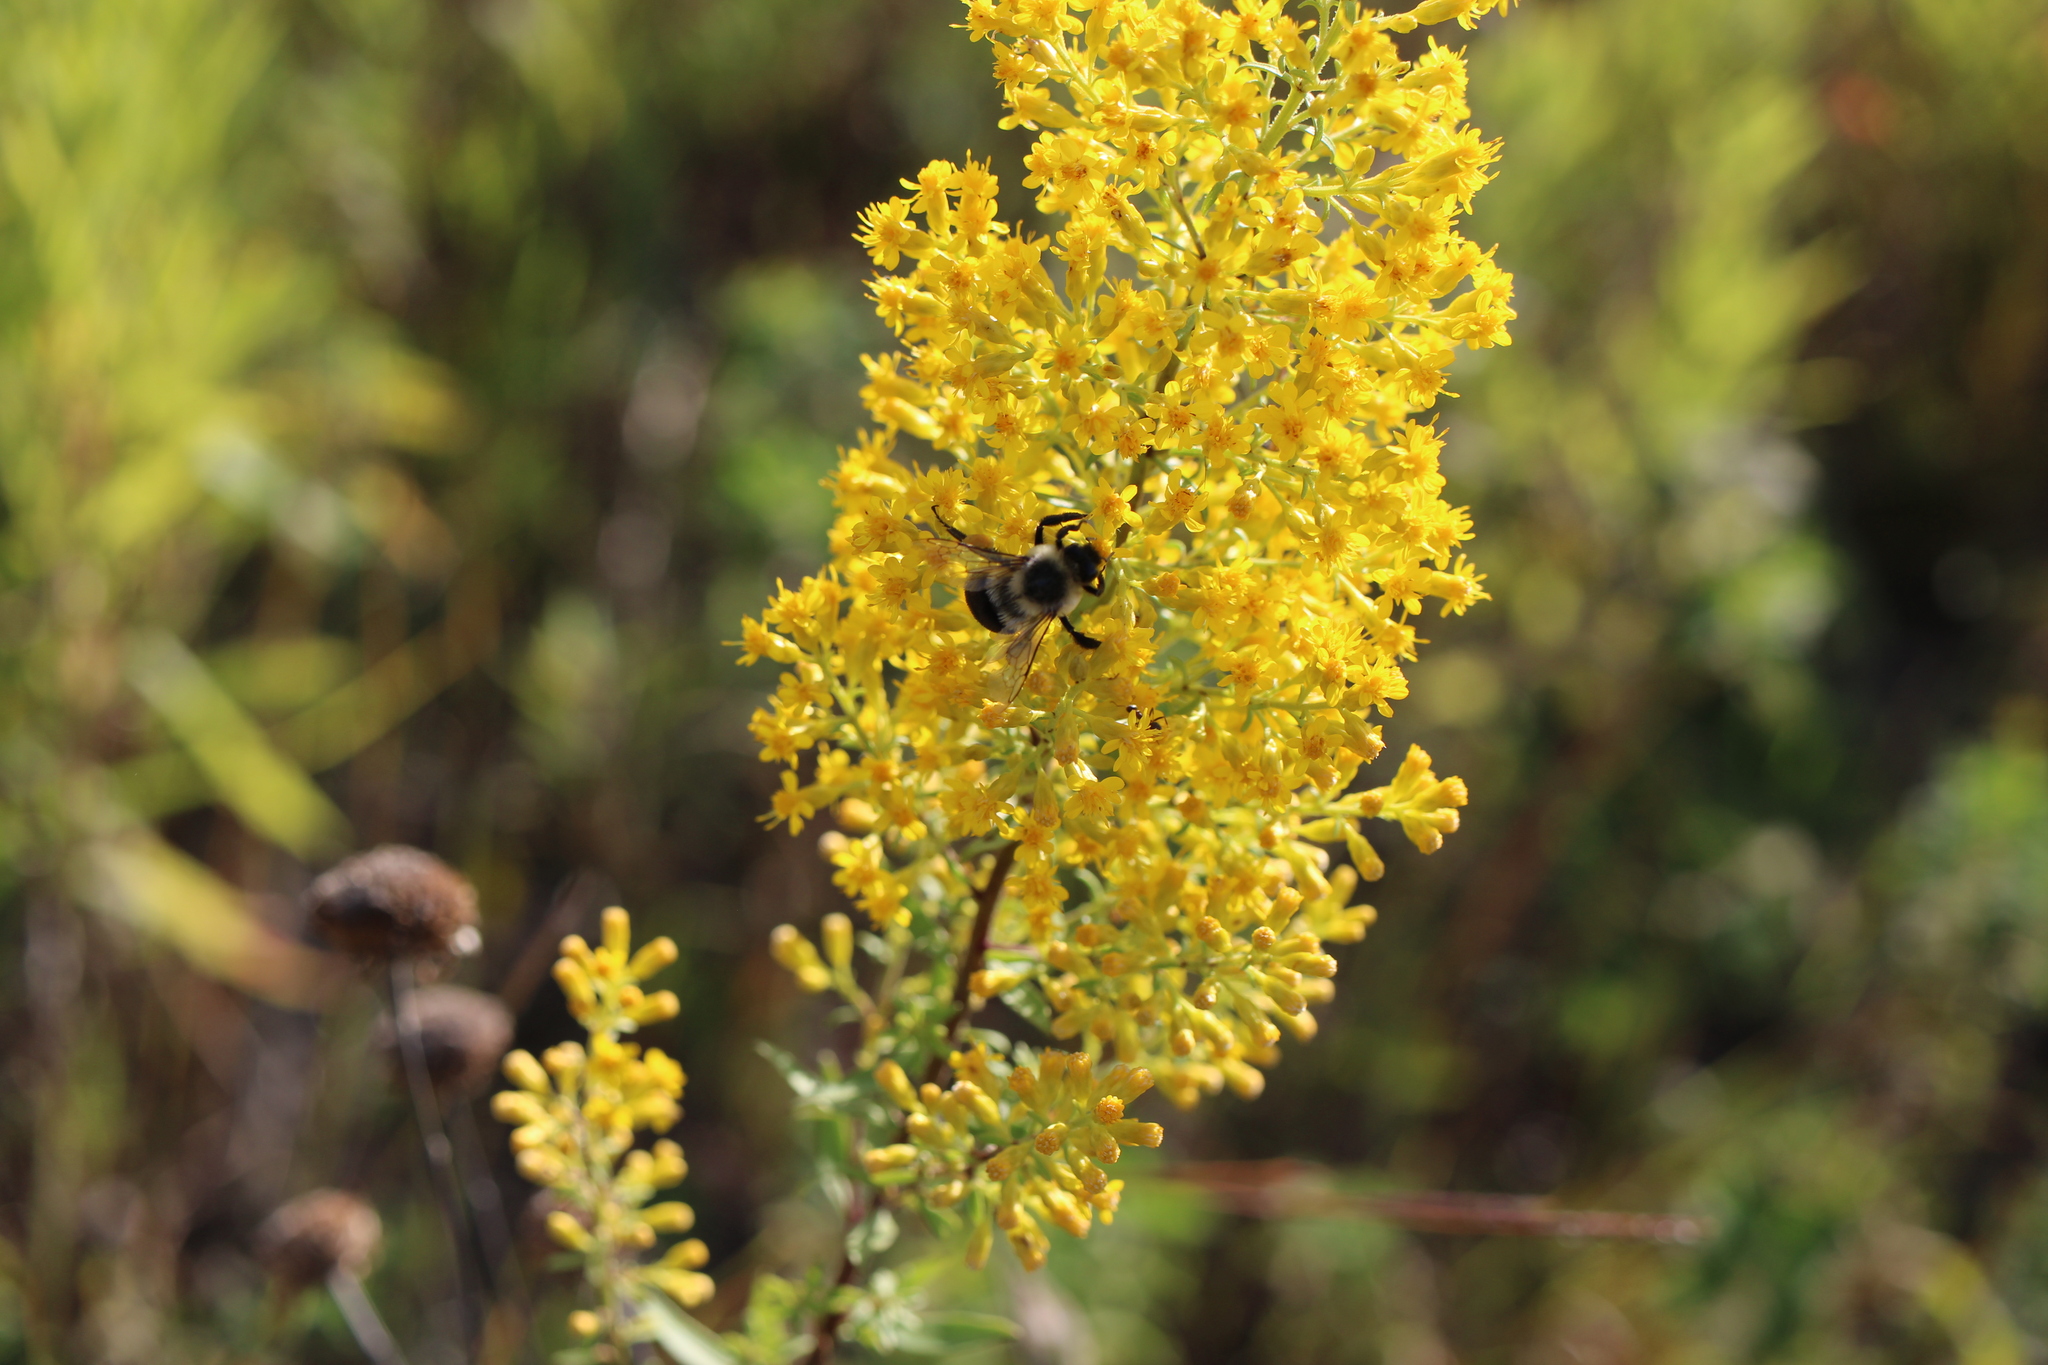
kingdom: Animalia
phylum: Arthropoda
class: Insecta
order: Hymenoptera
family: Apidae
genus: Bombus
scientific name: Bombus impatiens
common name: Common eastern bumble bee
